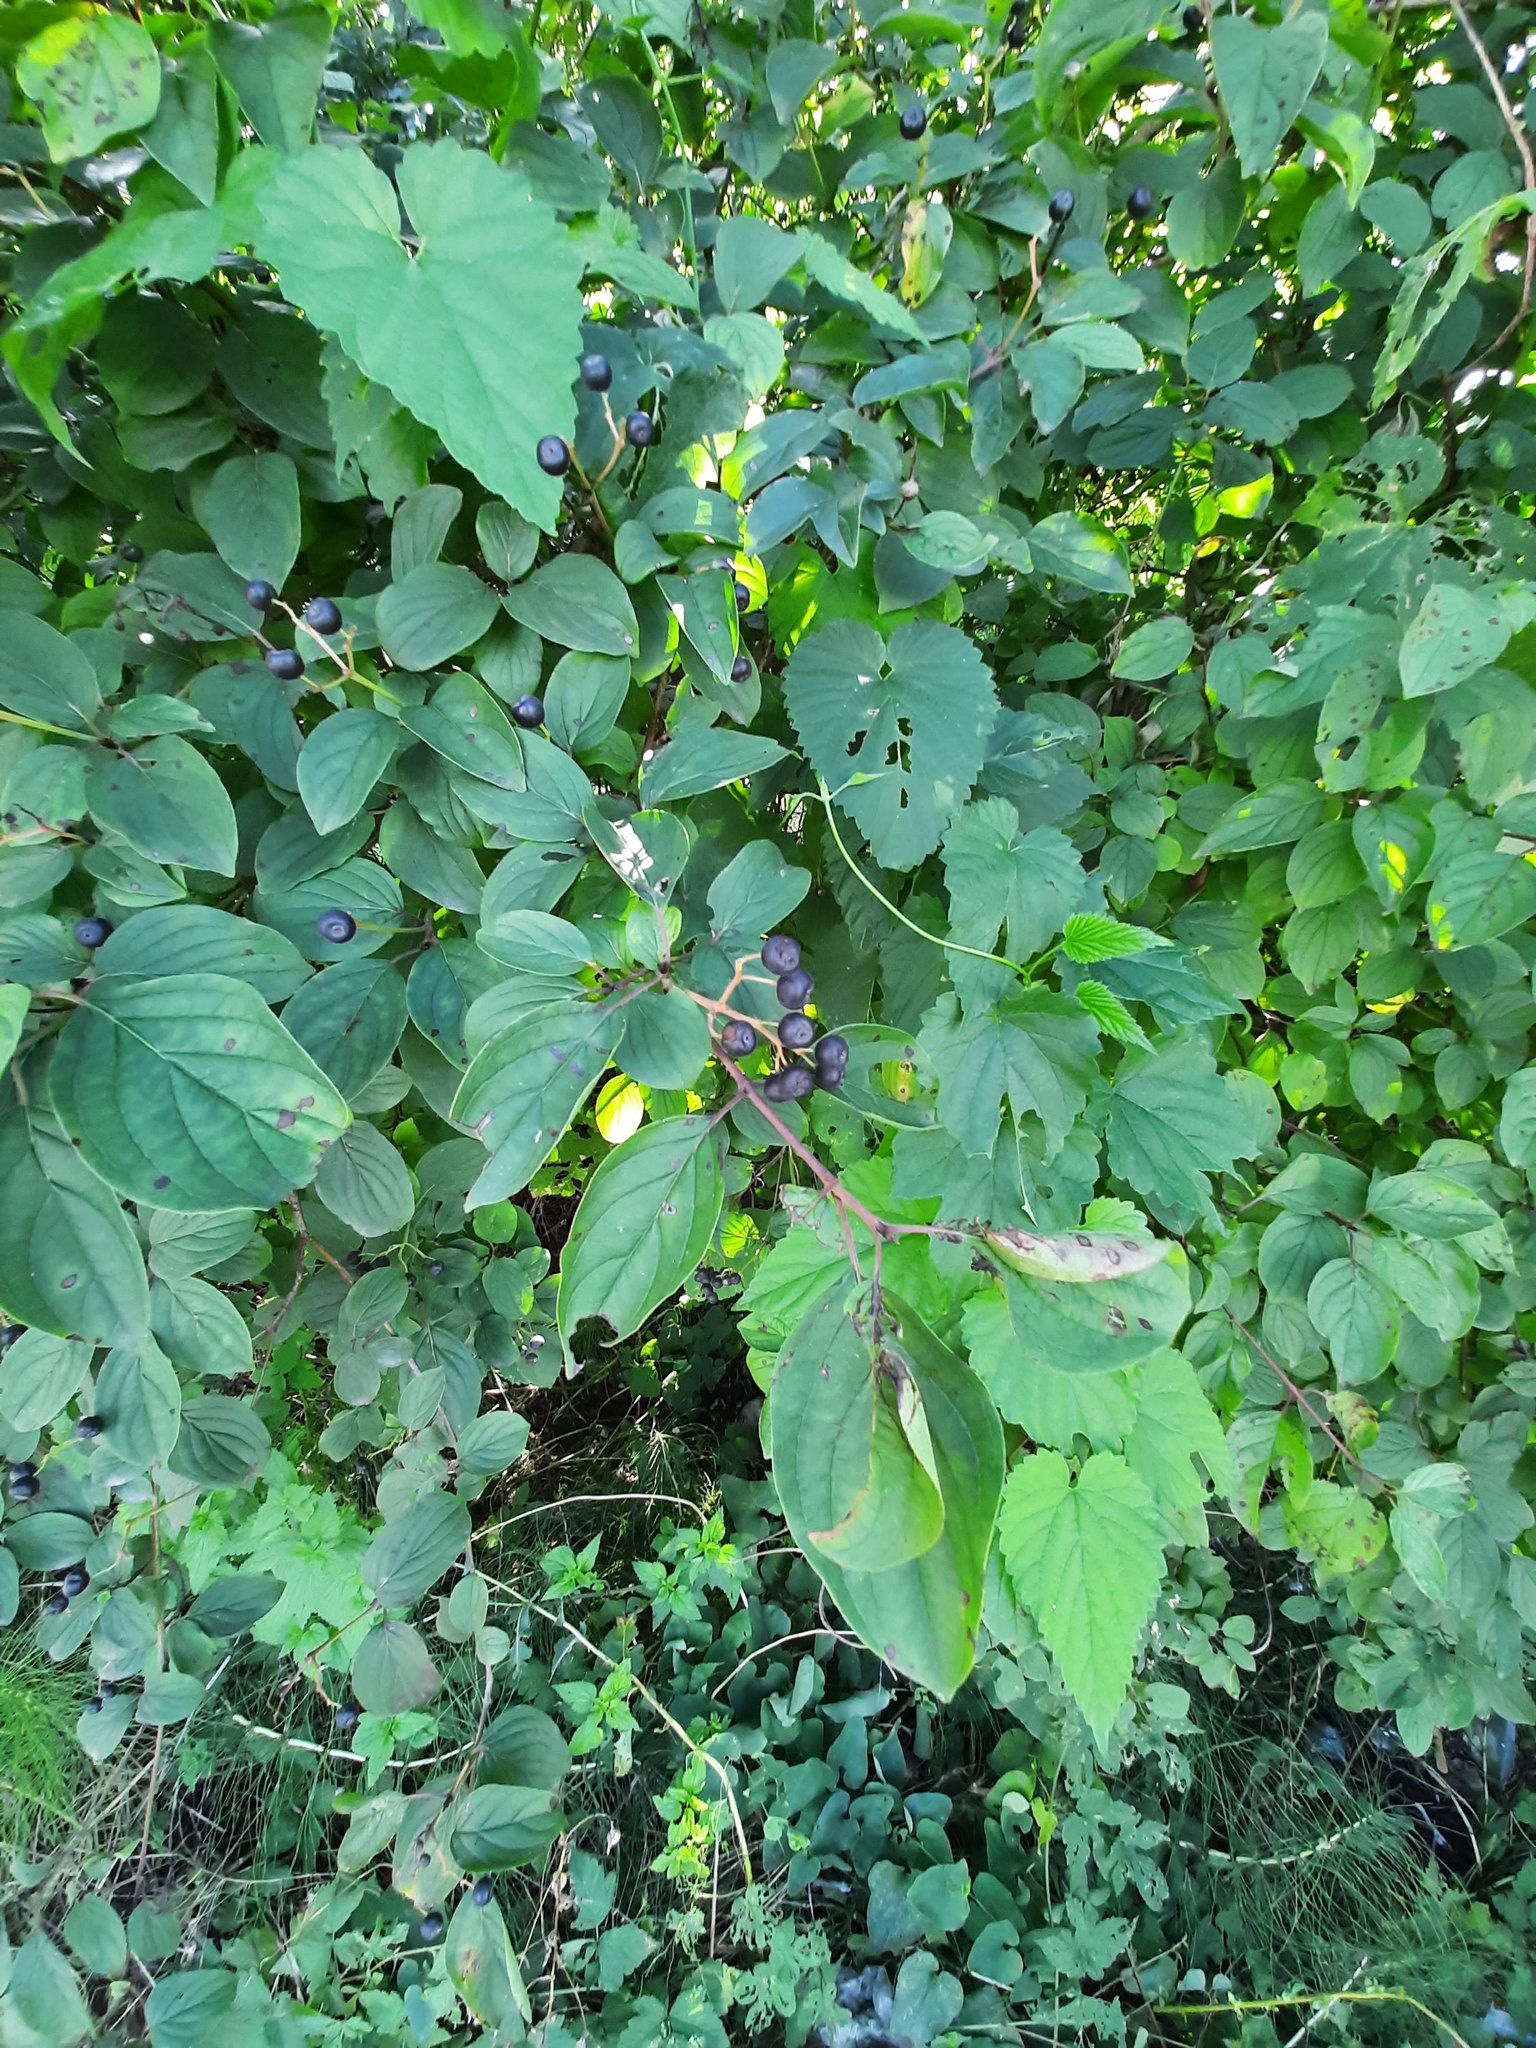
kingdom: Plantae
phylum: Tracheophyta
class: Magnoliopsida
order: Cornales
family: Cornaceae
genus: Cornus
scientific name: Cornus sanguinea
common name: Dogwood
